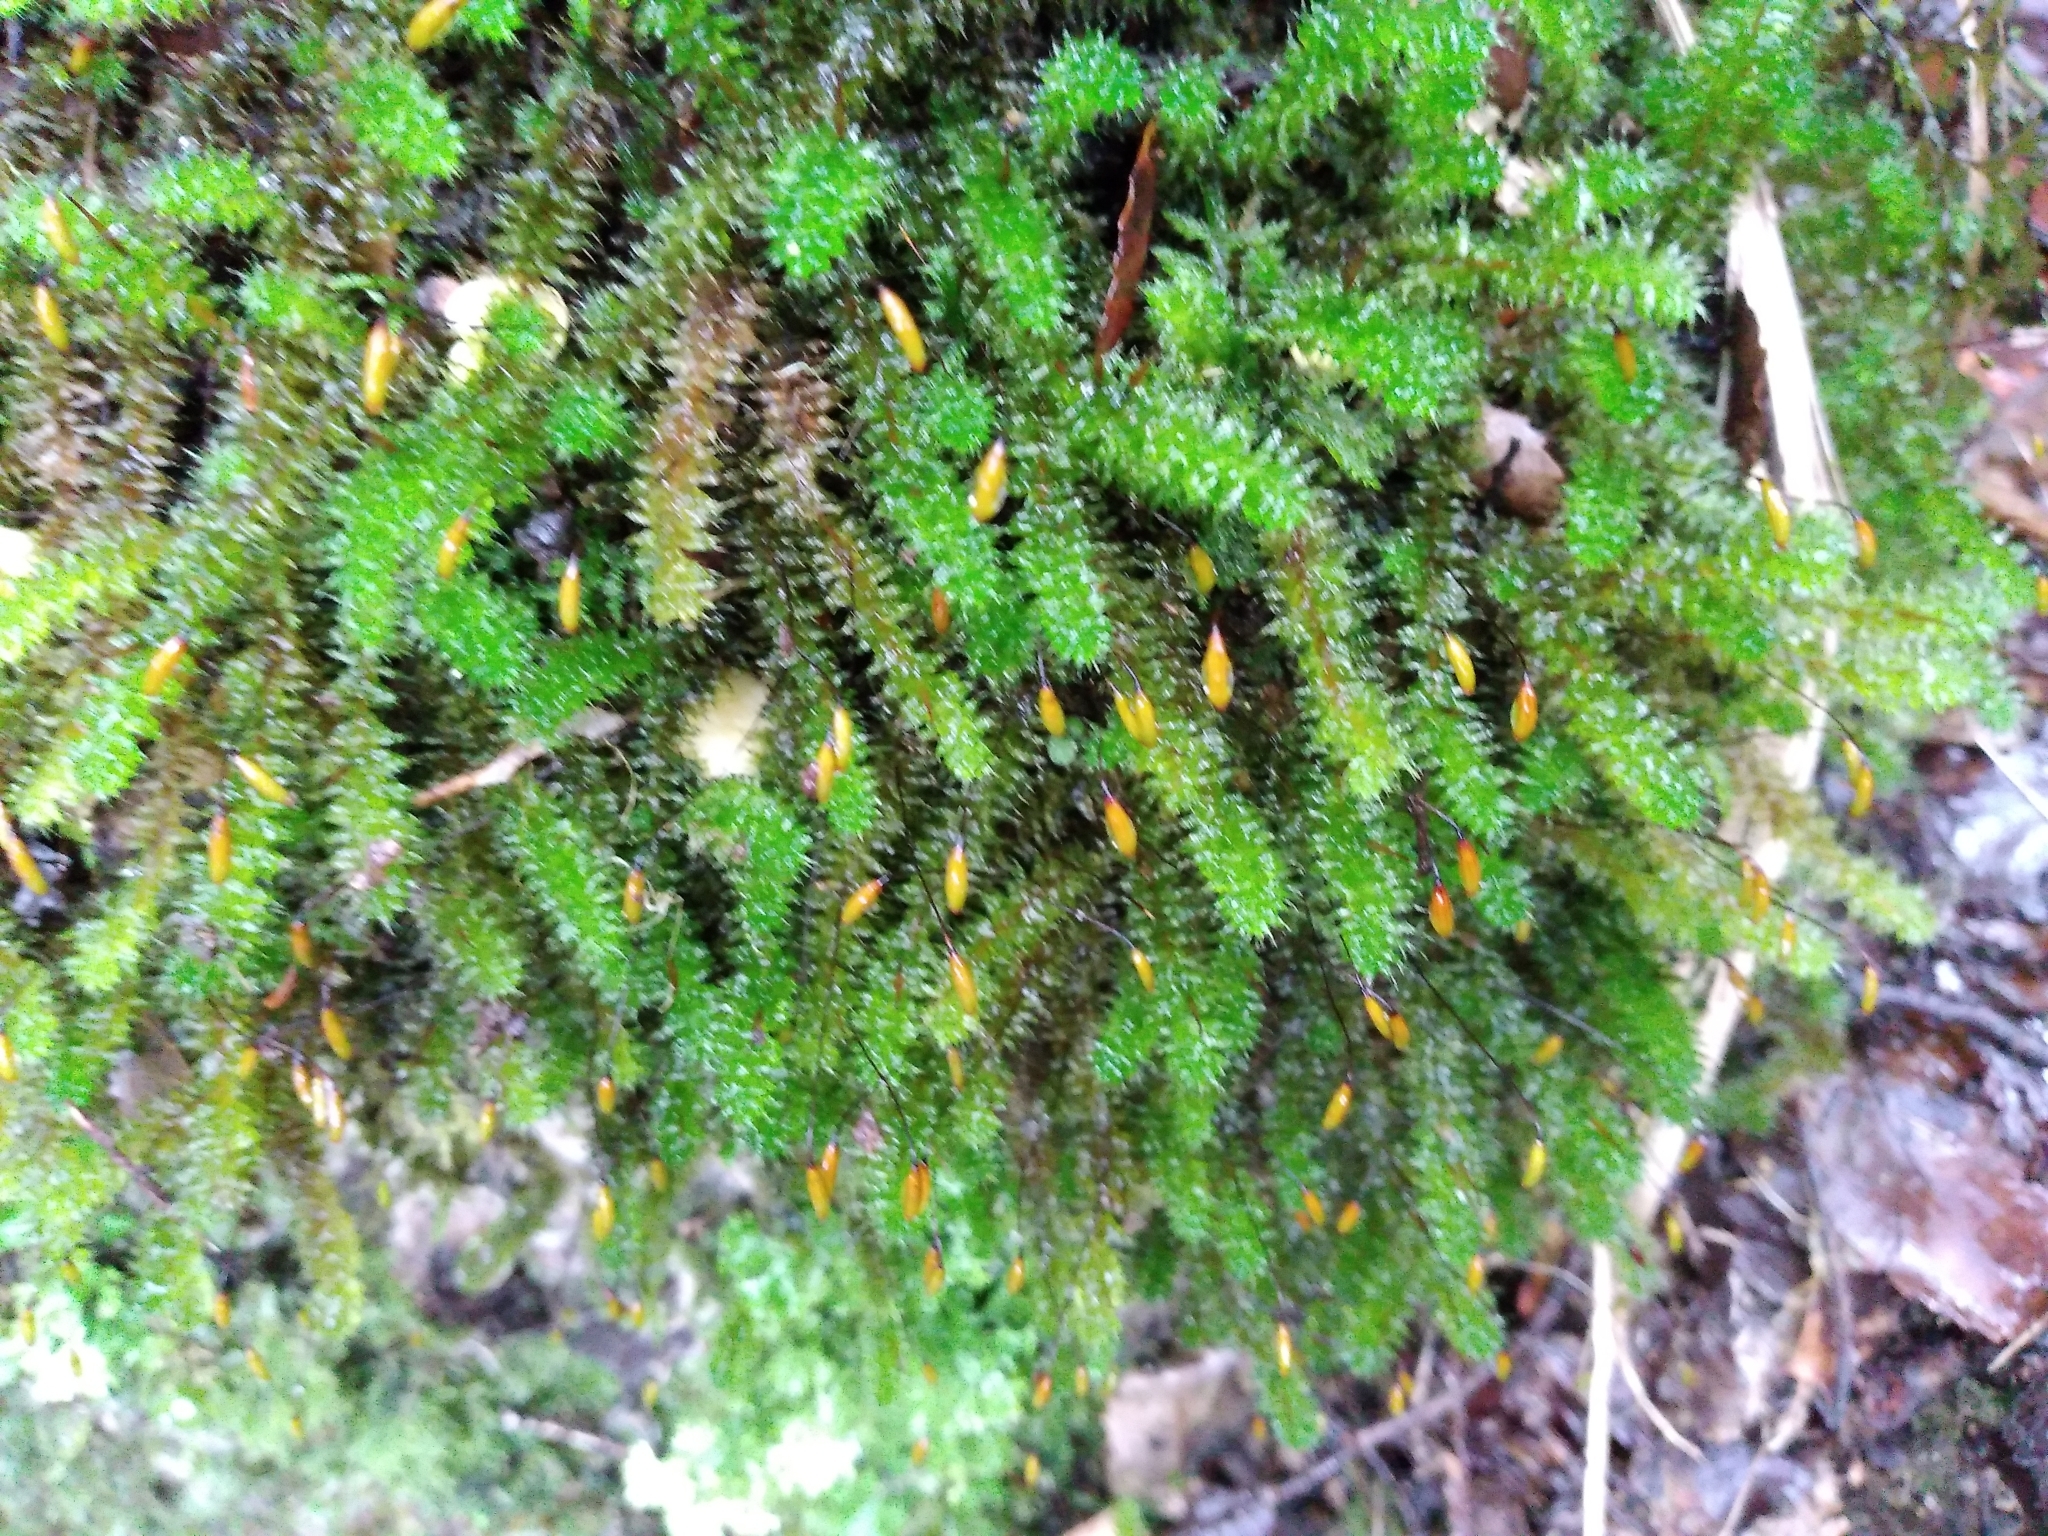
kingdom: Plantae
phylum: Bryophyta
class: Bryopsida
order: Ptychomniales
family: Ptychomniaceae
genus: Ptychomnion
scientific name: Ptychomnion aciculare
